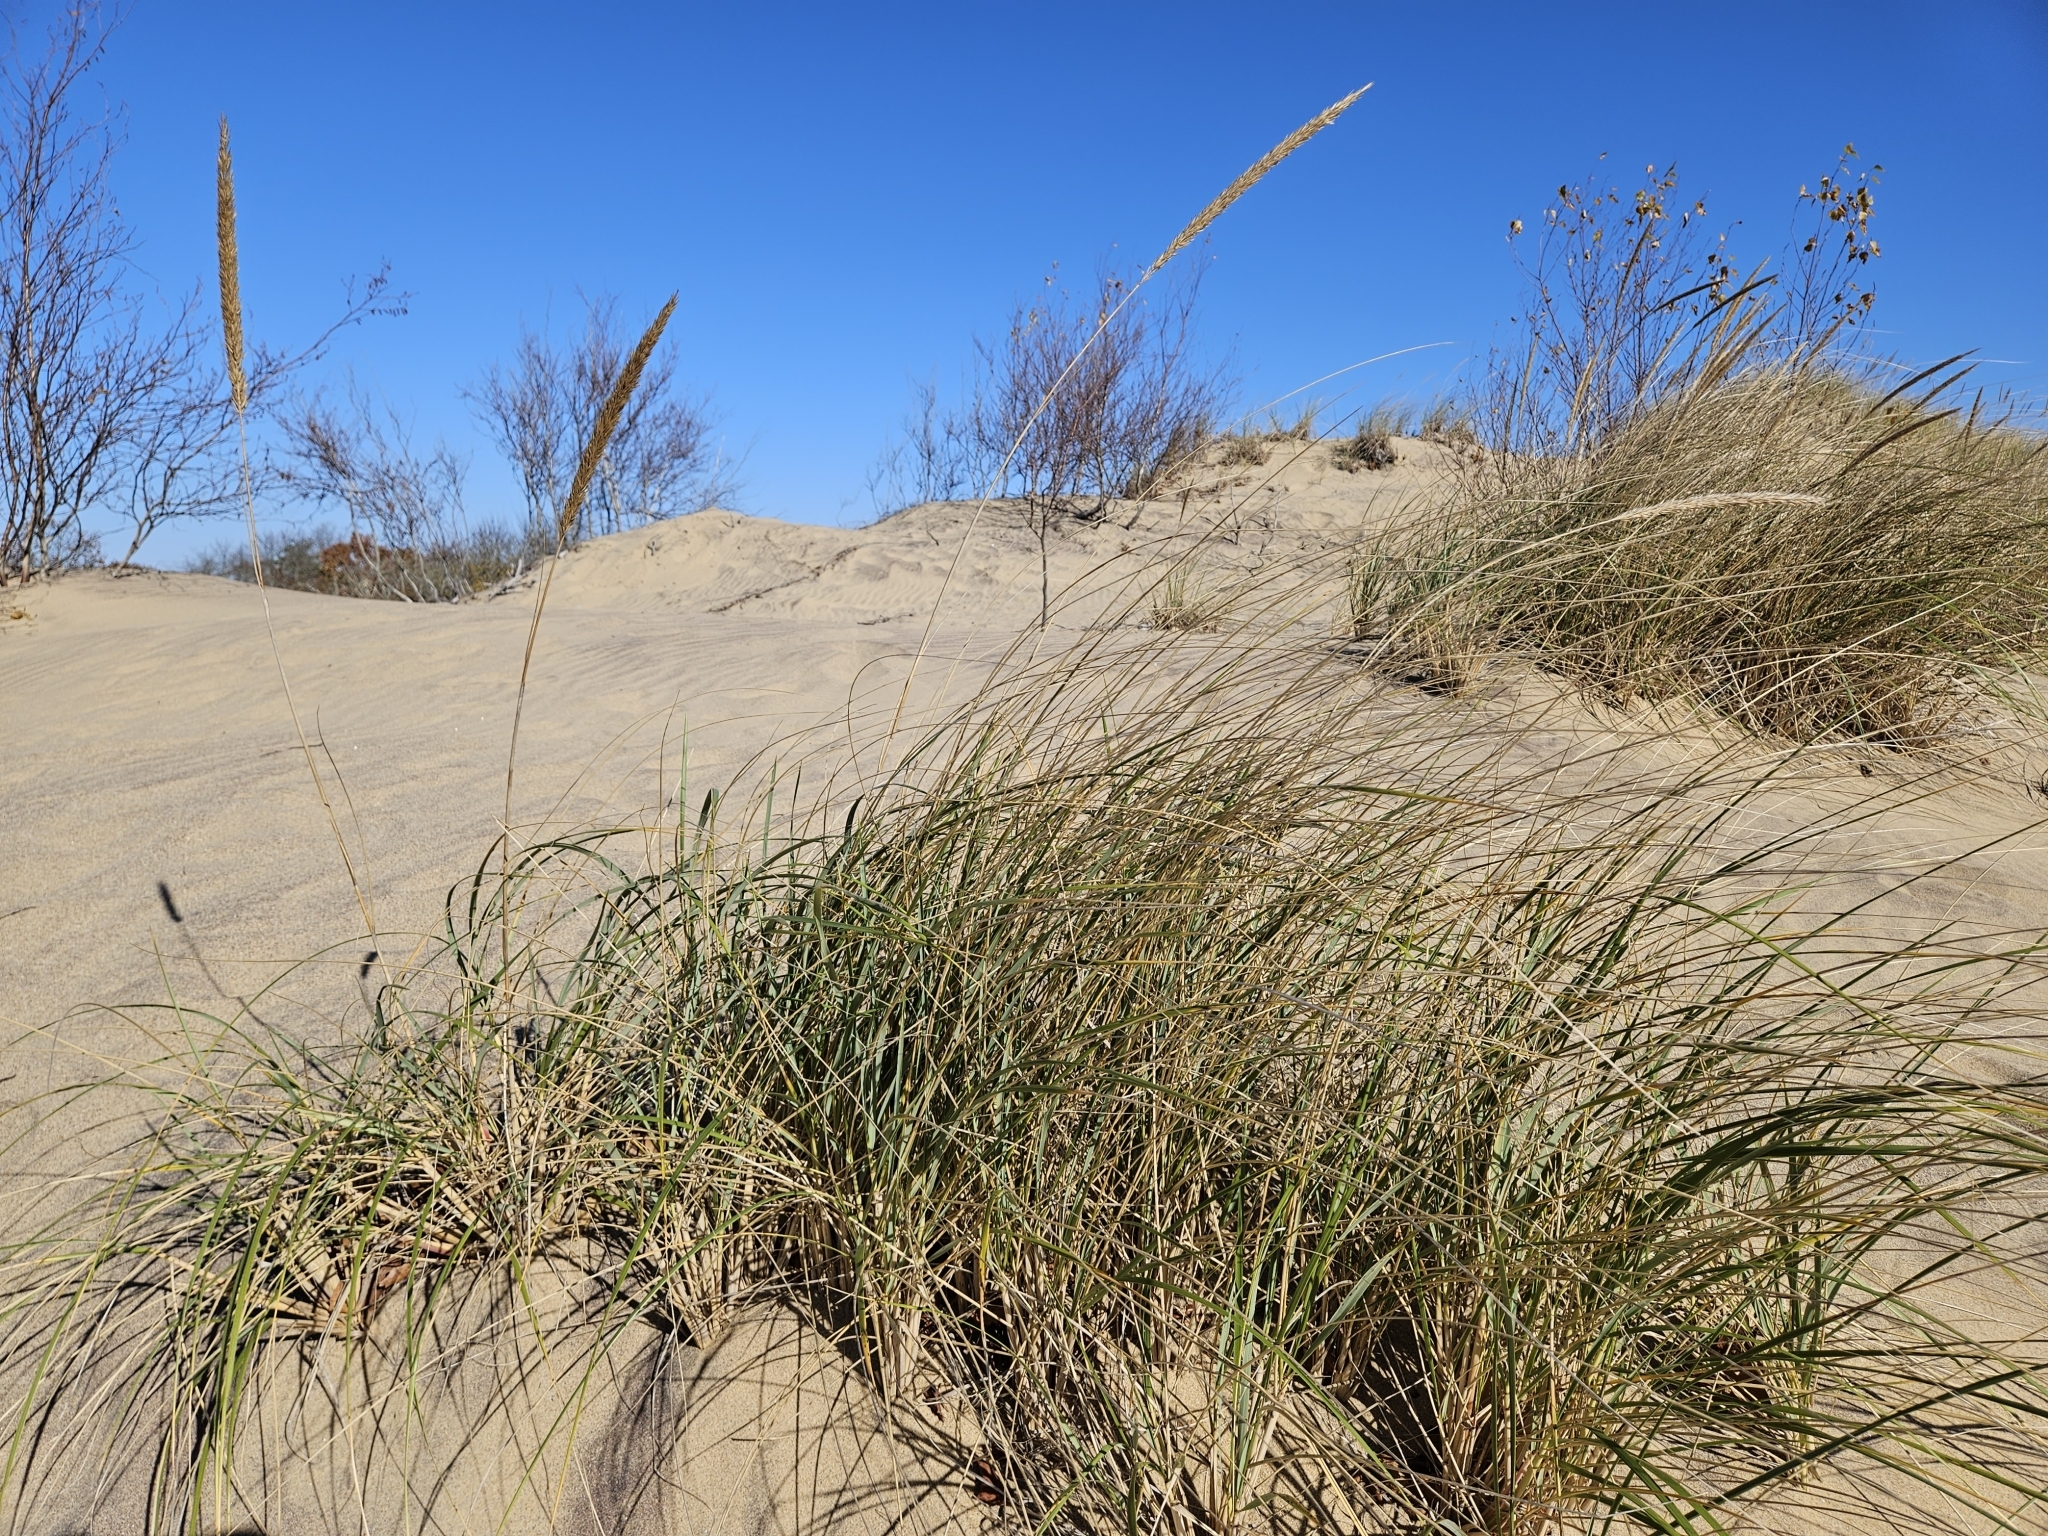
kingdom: Plantae
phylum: Tracheophyta
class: Liliopsida
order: Poales
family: Poaceae
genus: Calamagrostis
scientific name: Calamagrostis breviligulata
